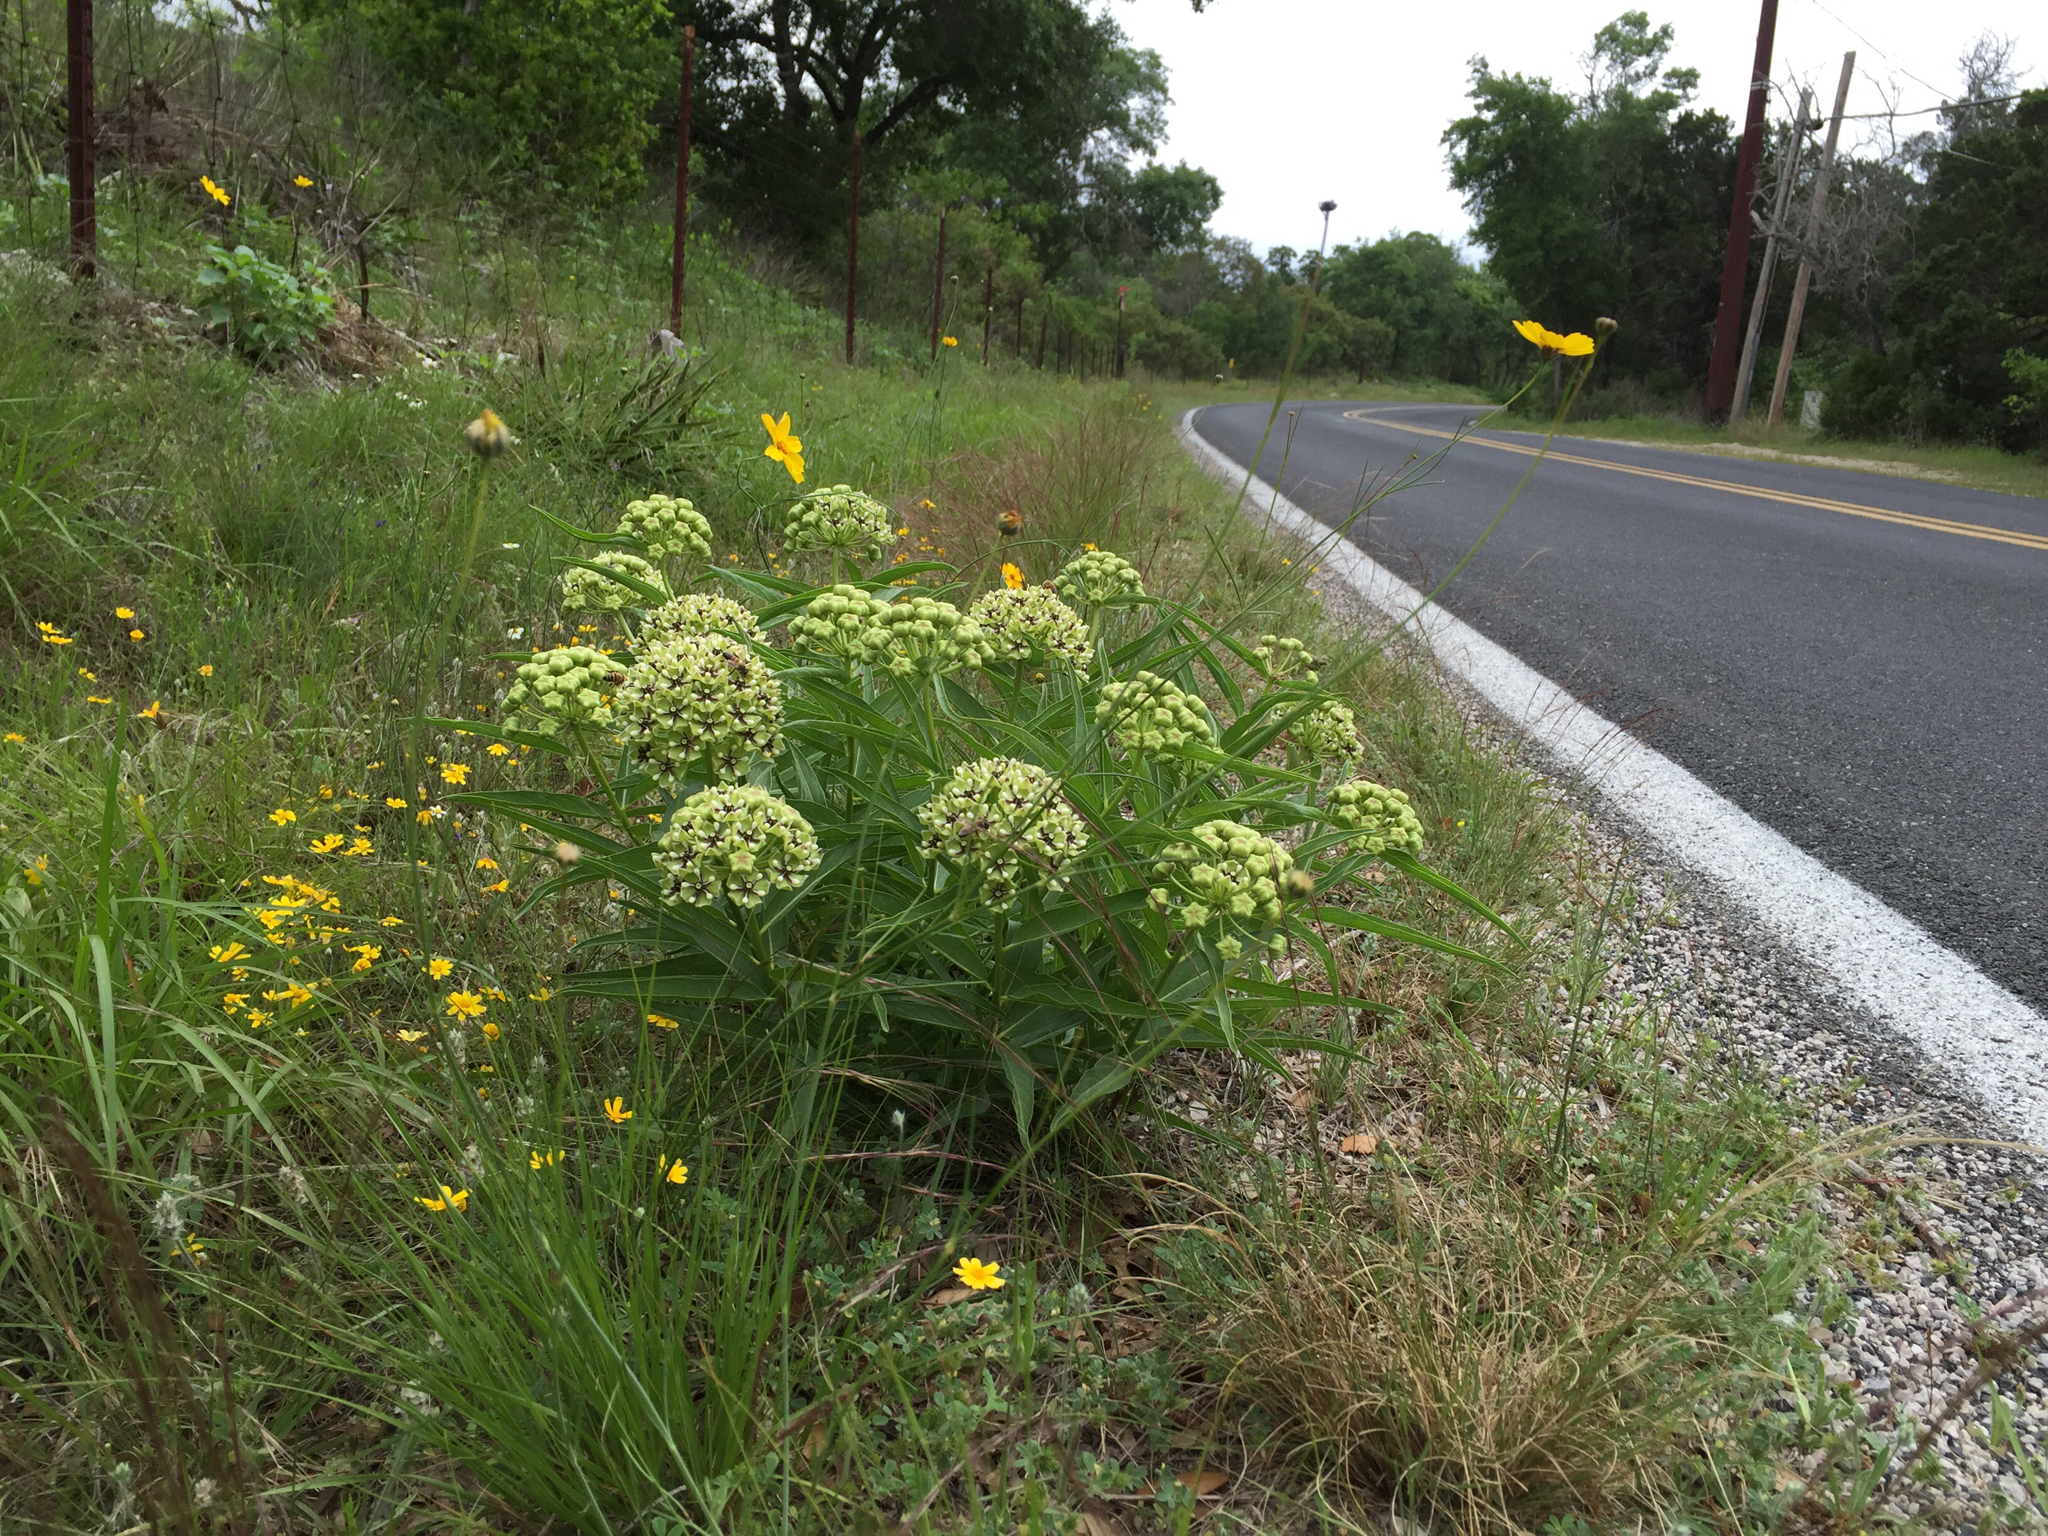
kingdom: Plantae
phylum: Tracheophyta
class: Magnoliopsida
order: Gentianales
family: Apocynaceae
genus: Asclepias
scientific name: Asclepias asperula
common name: Antelope horns
